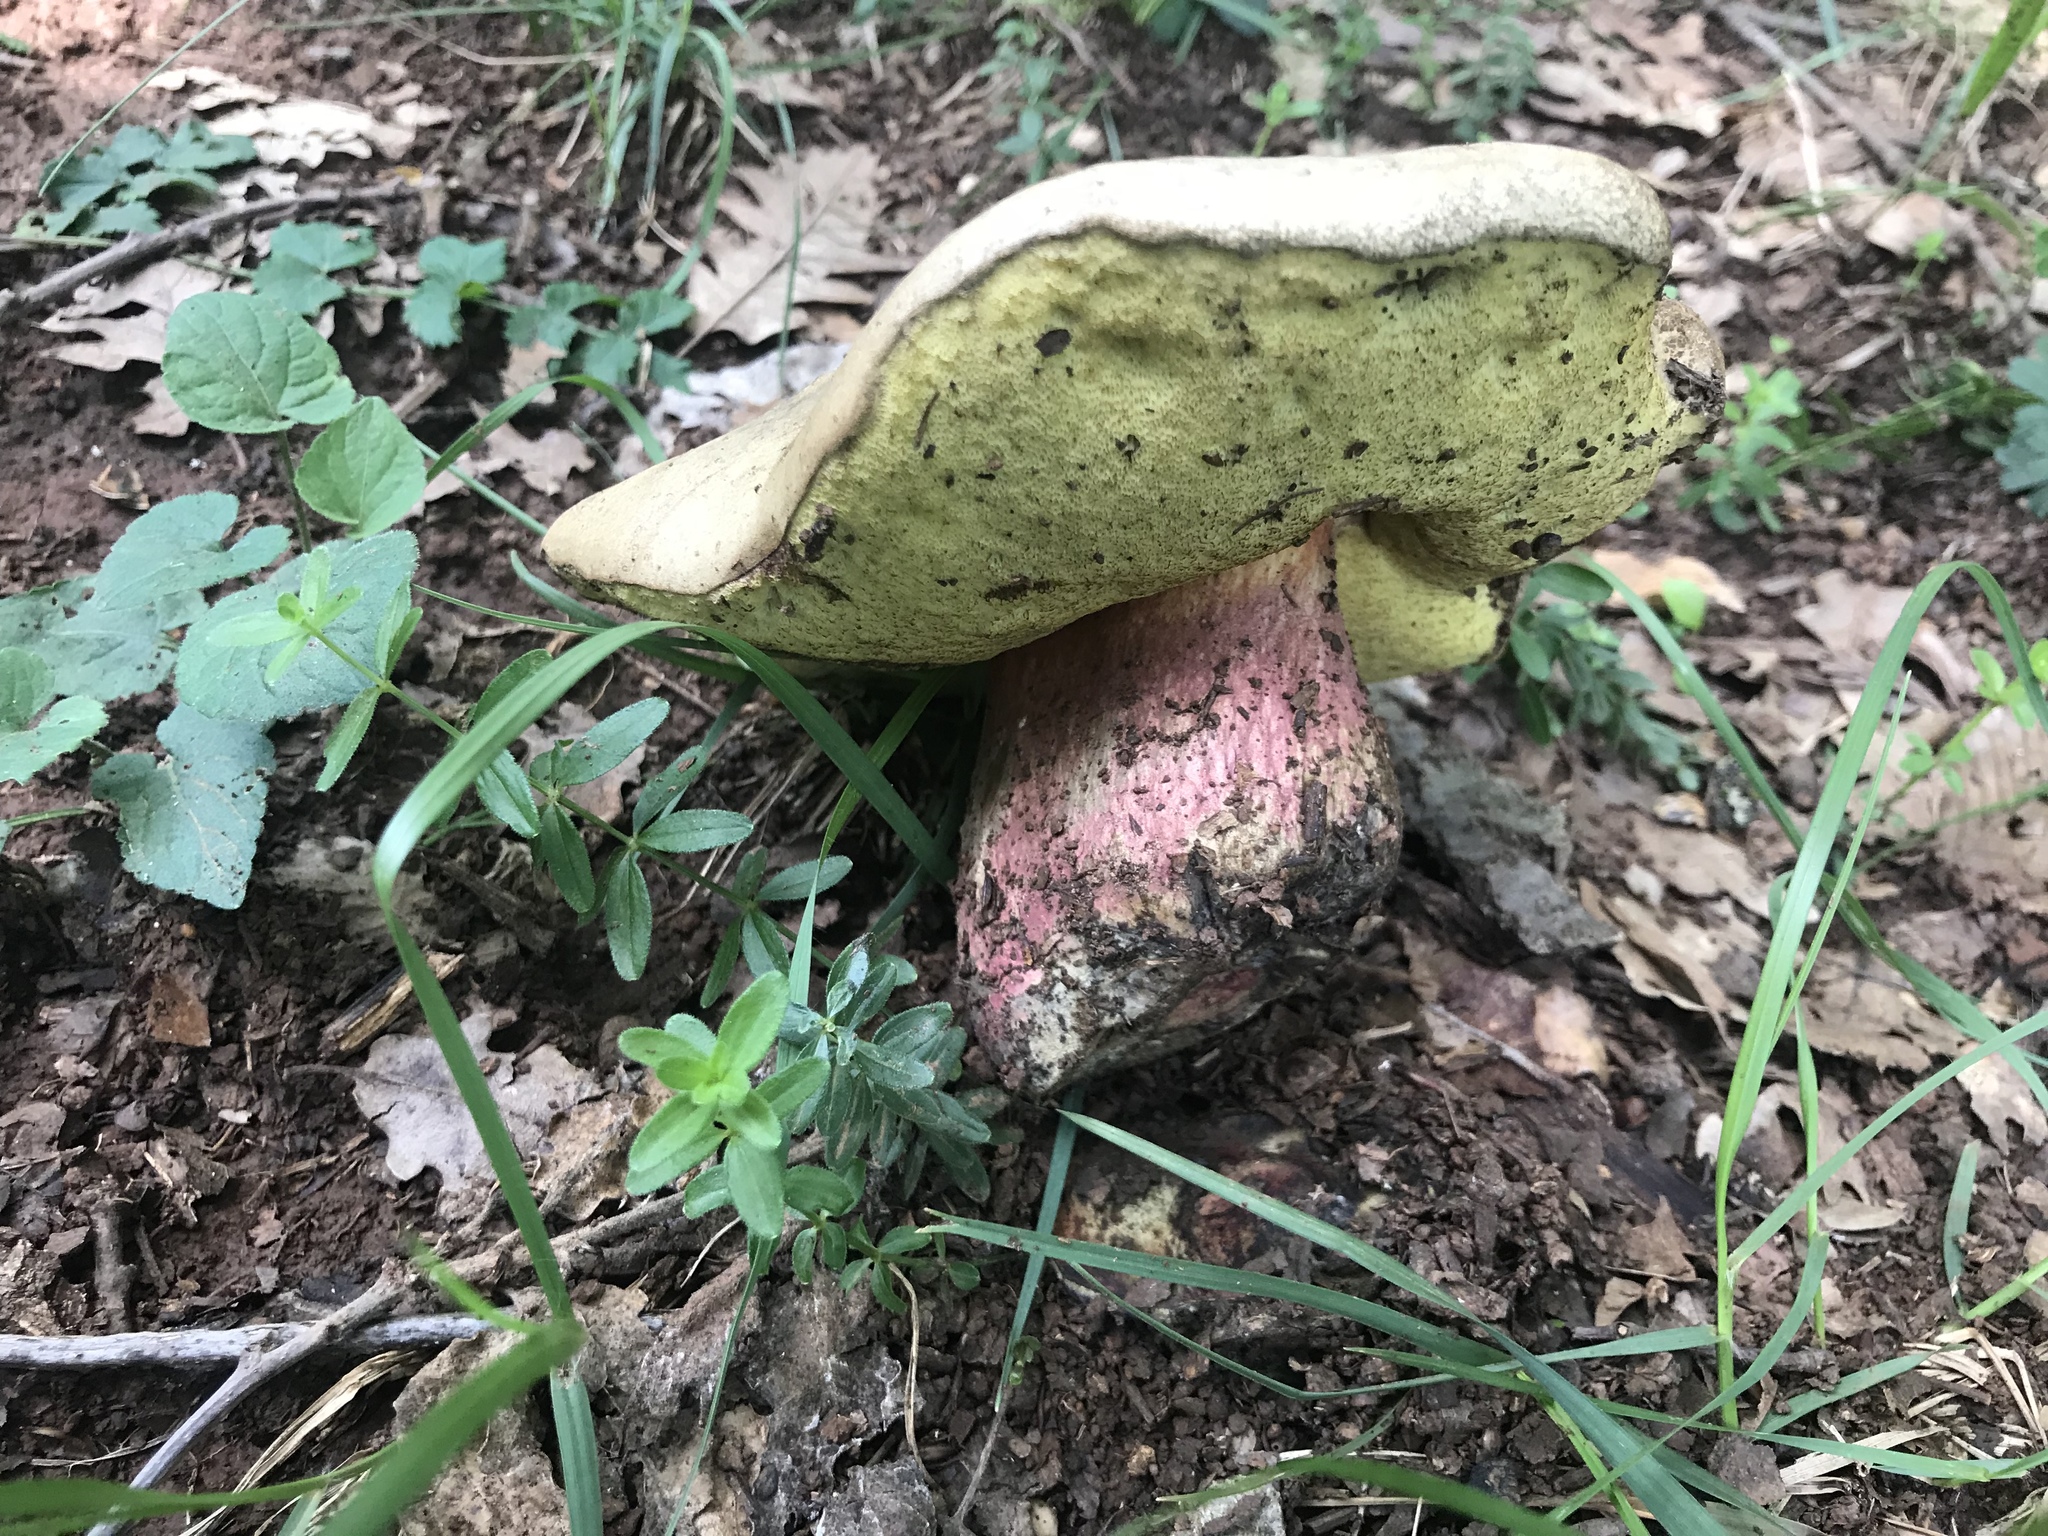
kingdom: Fungi
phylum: Basidiomycota
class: Agaricomycetes
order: Boletales
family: Boletaceae
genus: Caloboletus
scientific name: Caloboletus calopus
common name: Bitter beech bolete
